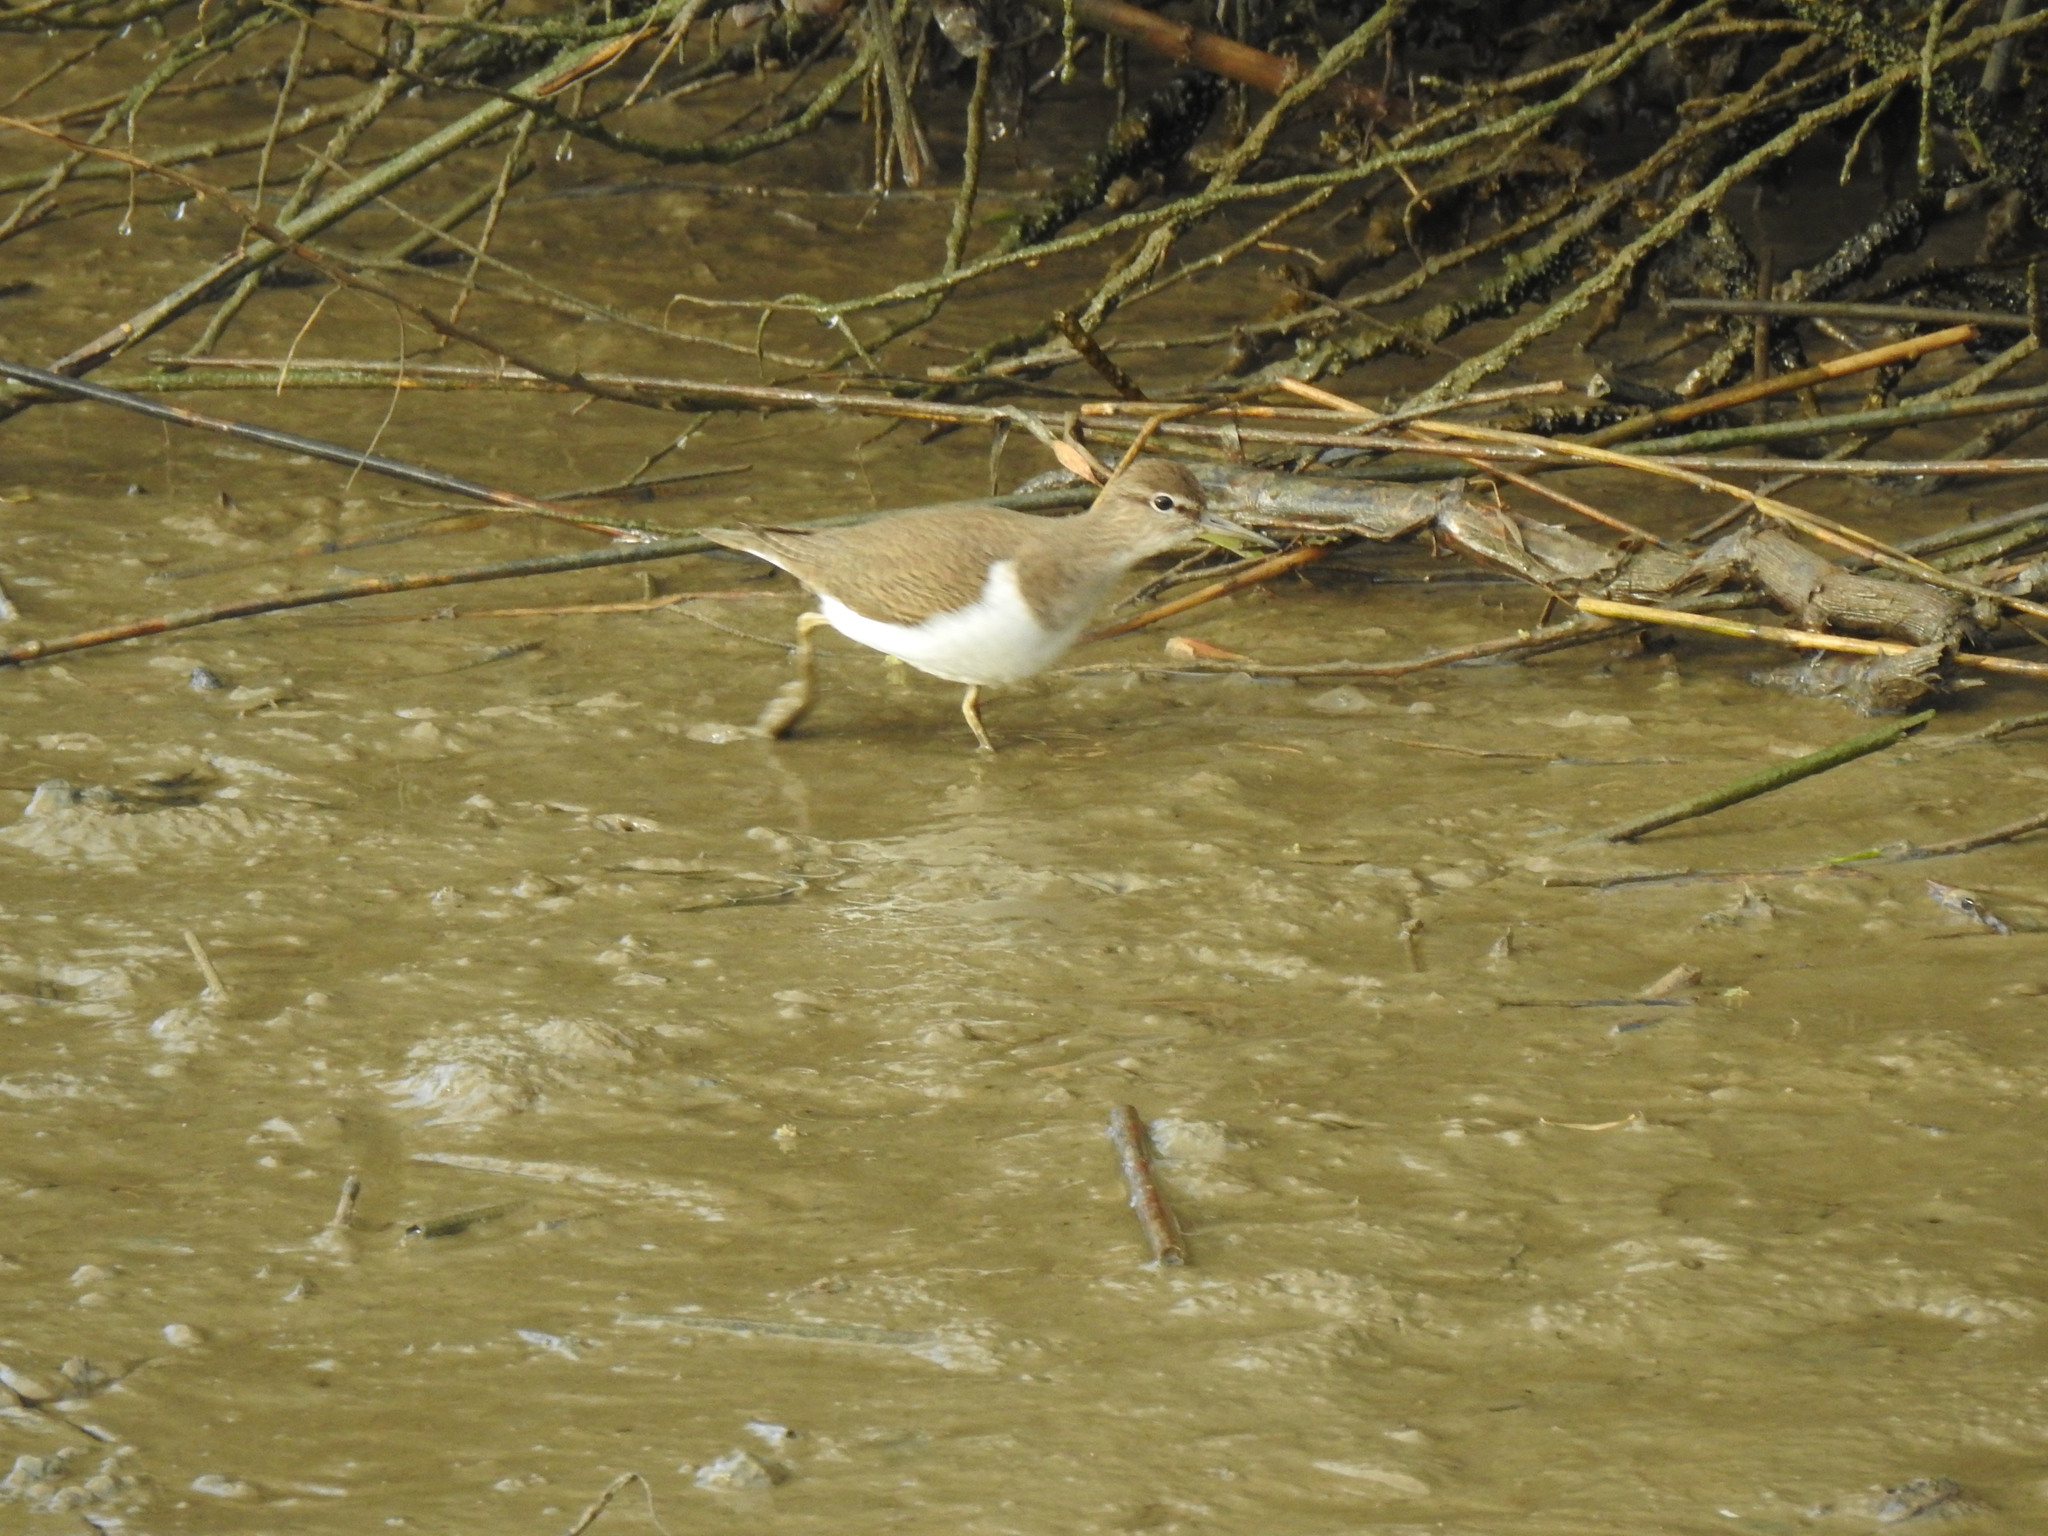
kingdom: Animalia
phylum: Chordata
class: Aves
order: Charadriiformes
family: Scolopacidae
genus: Actitis
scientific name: Actitis hypoleucos
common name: Common sandpiper
